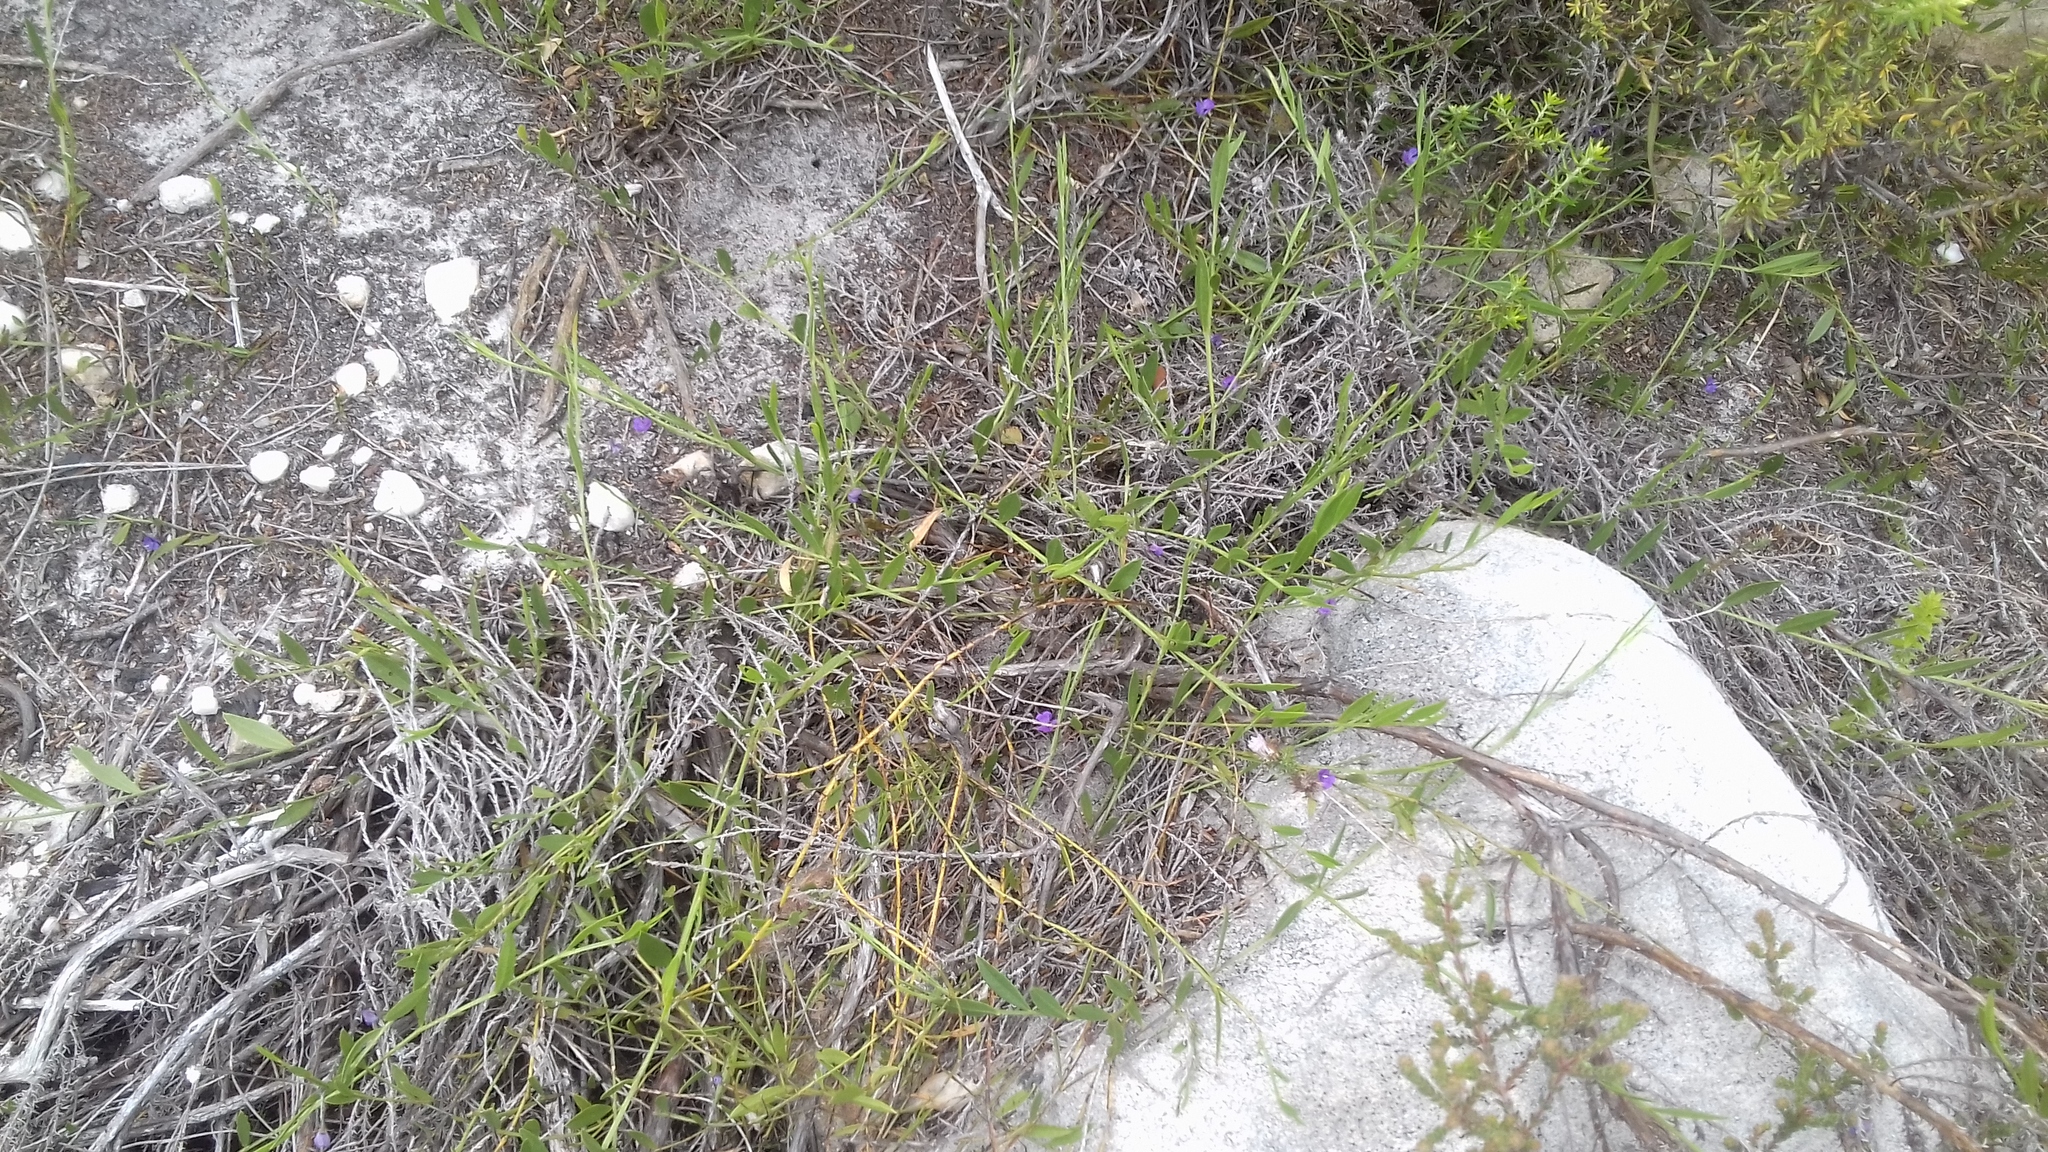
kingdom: Plantae
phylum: Tracheophyta
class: Magnoliopsida
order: Fabales
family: Fabaceae
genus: Psoralea
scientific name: Psoralea laxa
